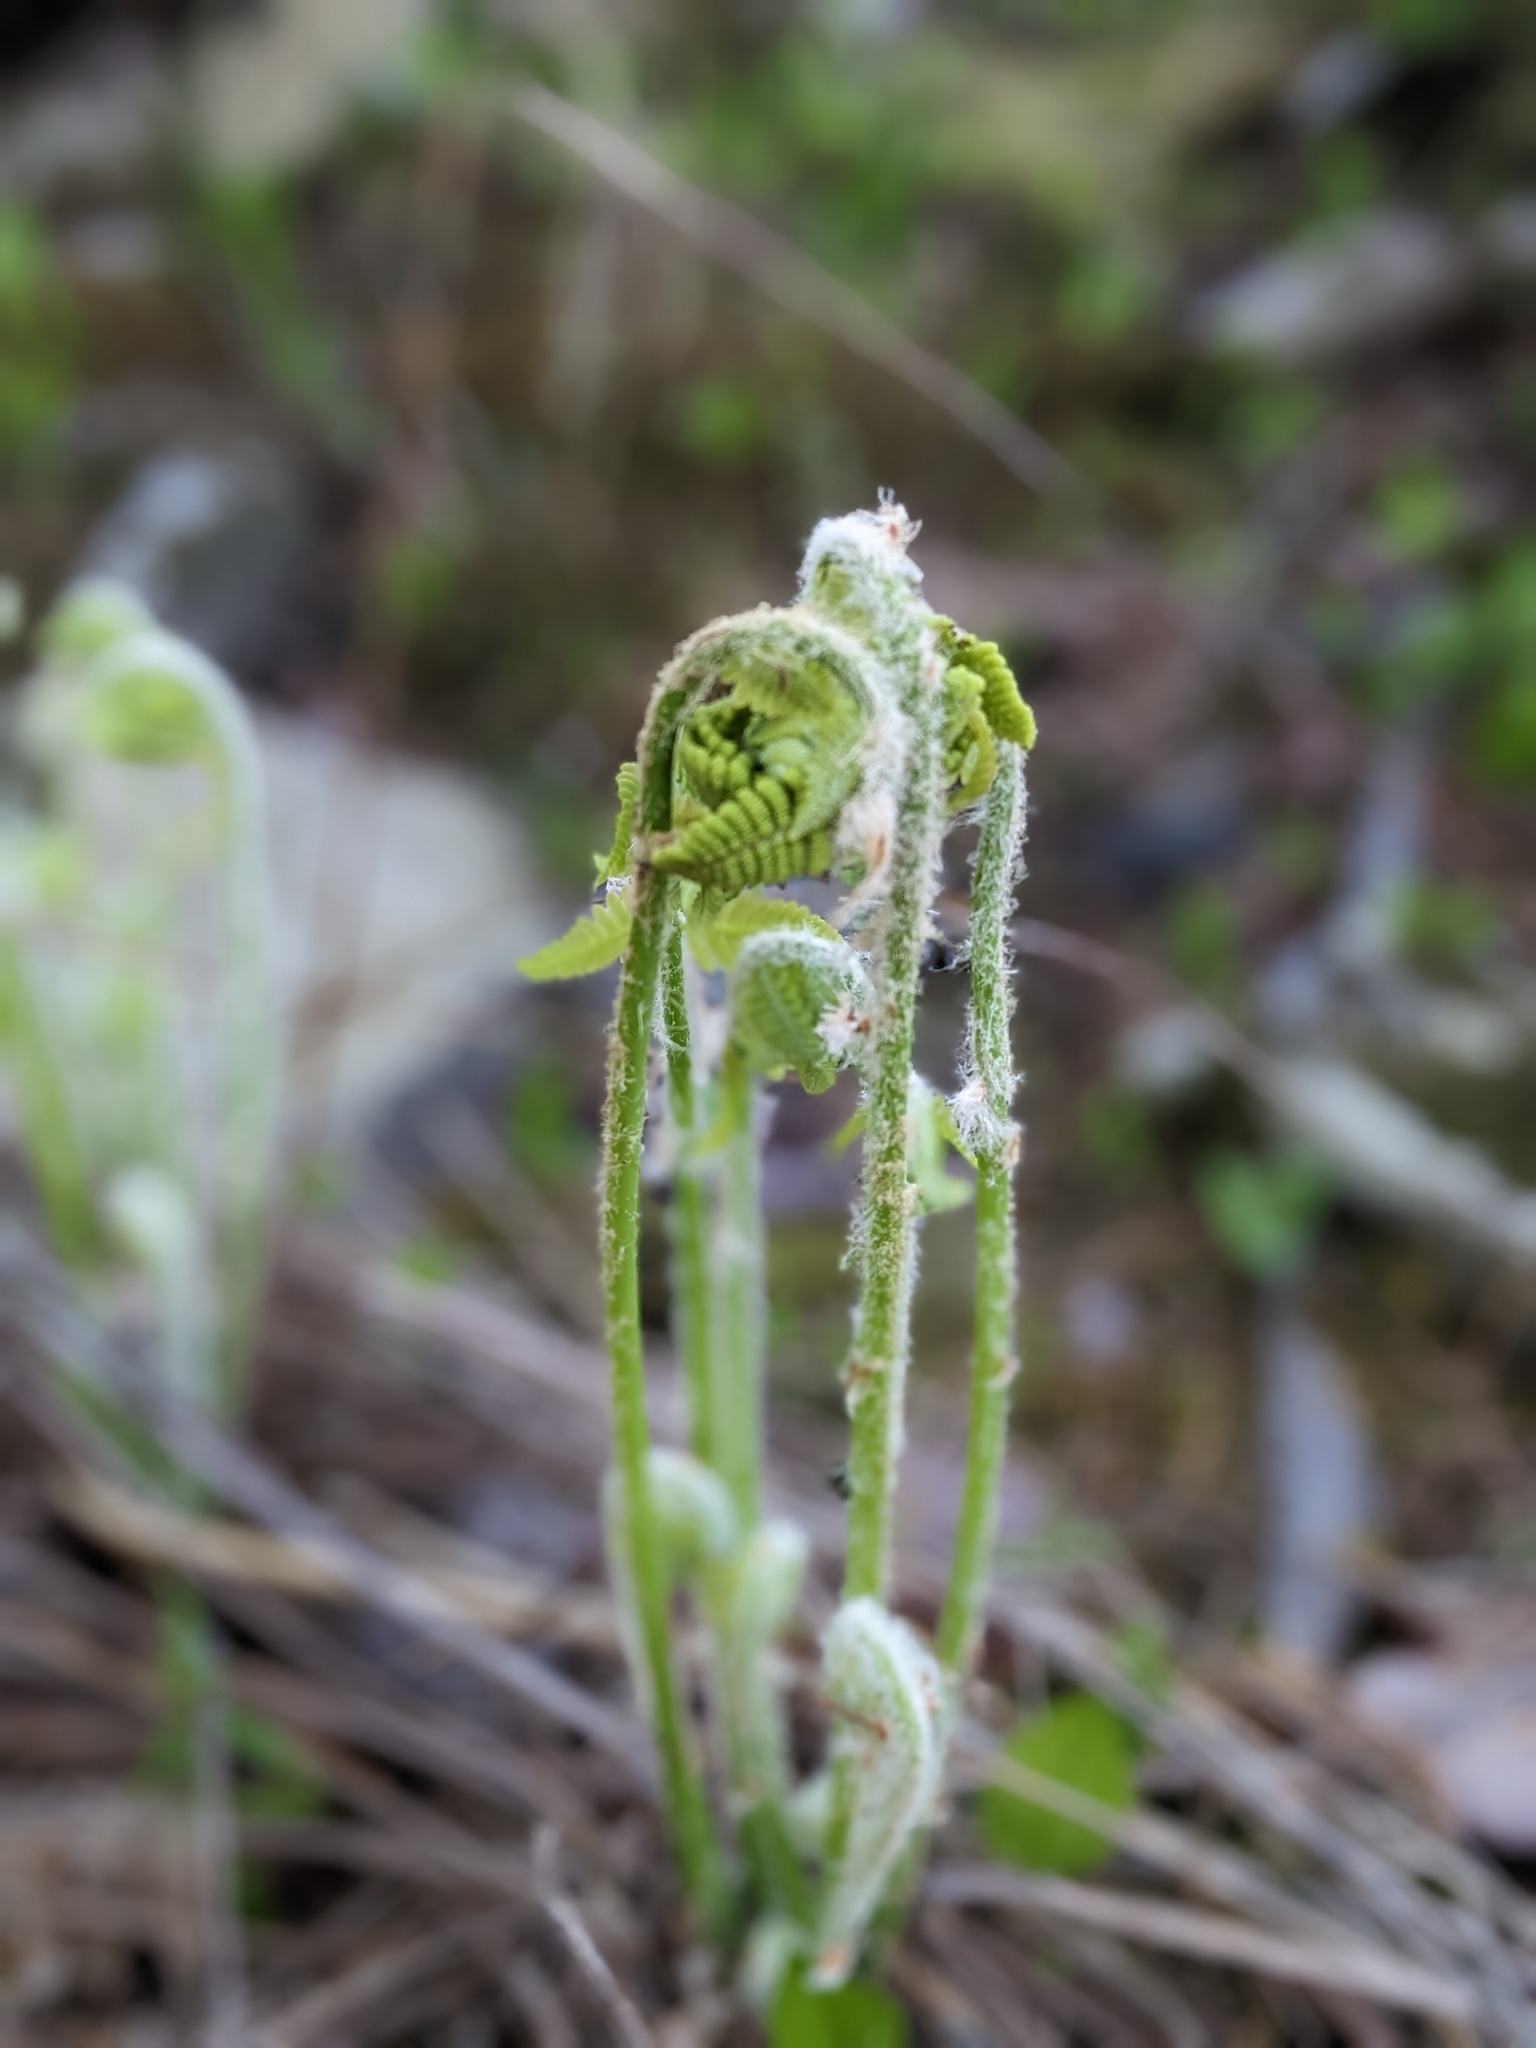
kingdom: Plantae
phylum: Tracheophyta
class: Polypodiopsida
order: Osmundales
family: Osmundaceae
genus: Claytosmunda
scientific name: Claytosmunda claytoniana
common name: Clayton's fern
